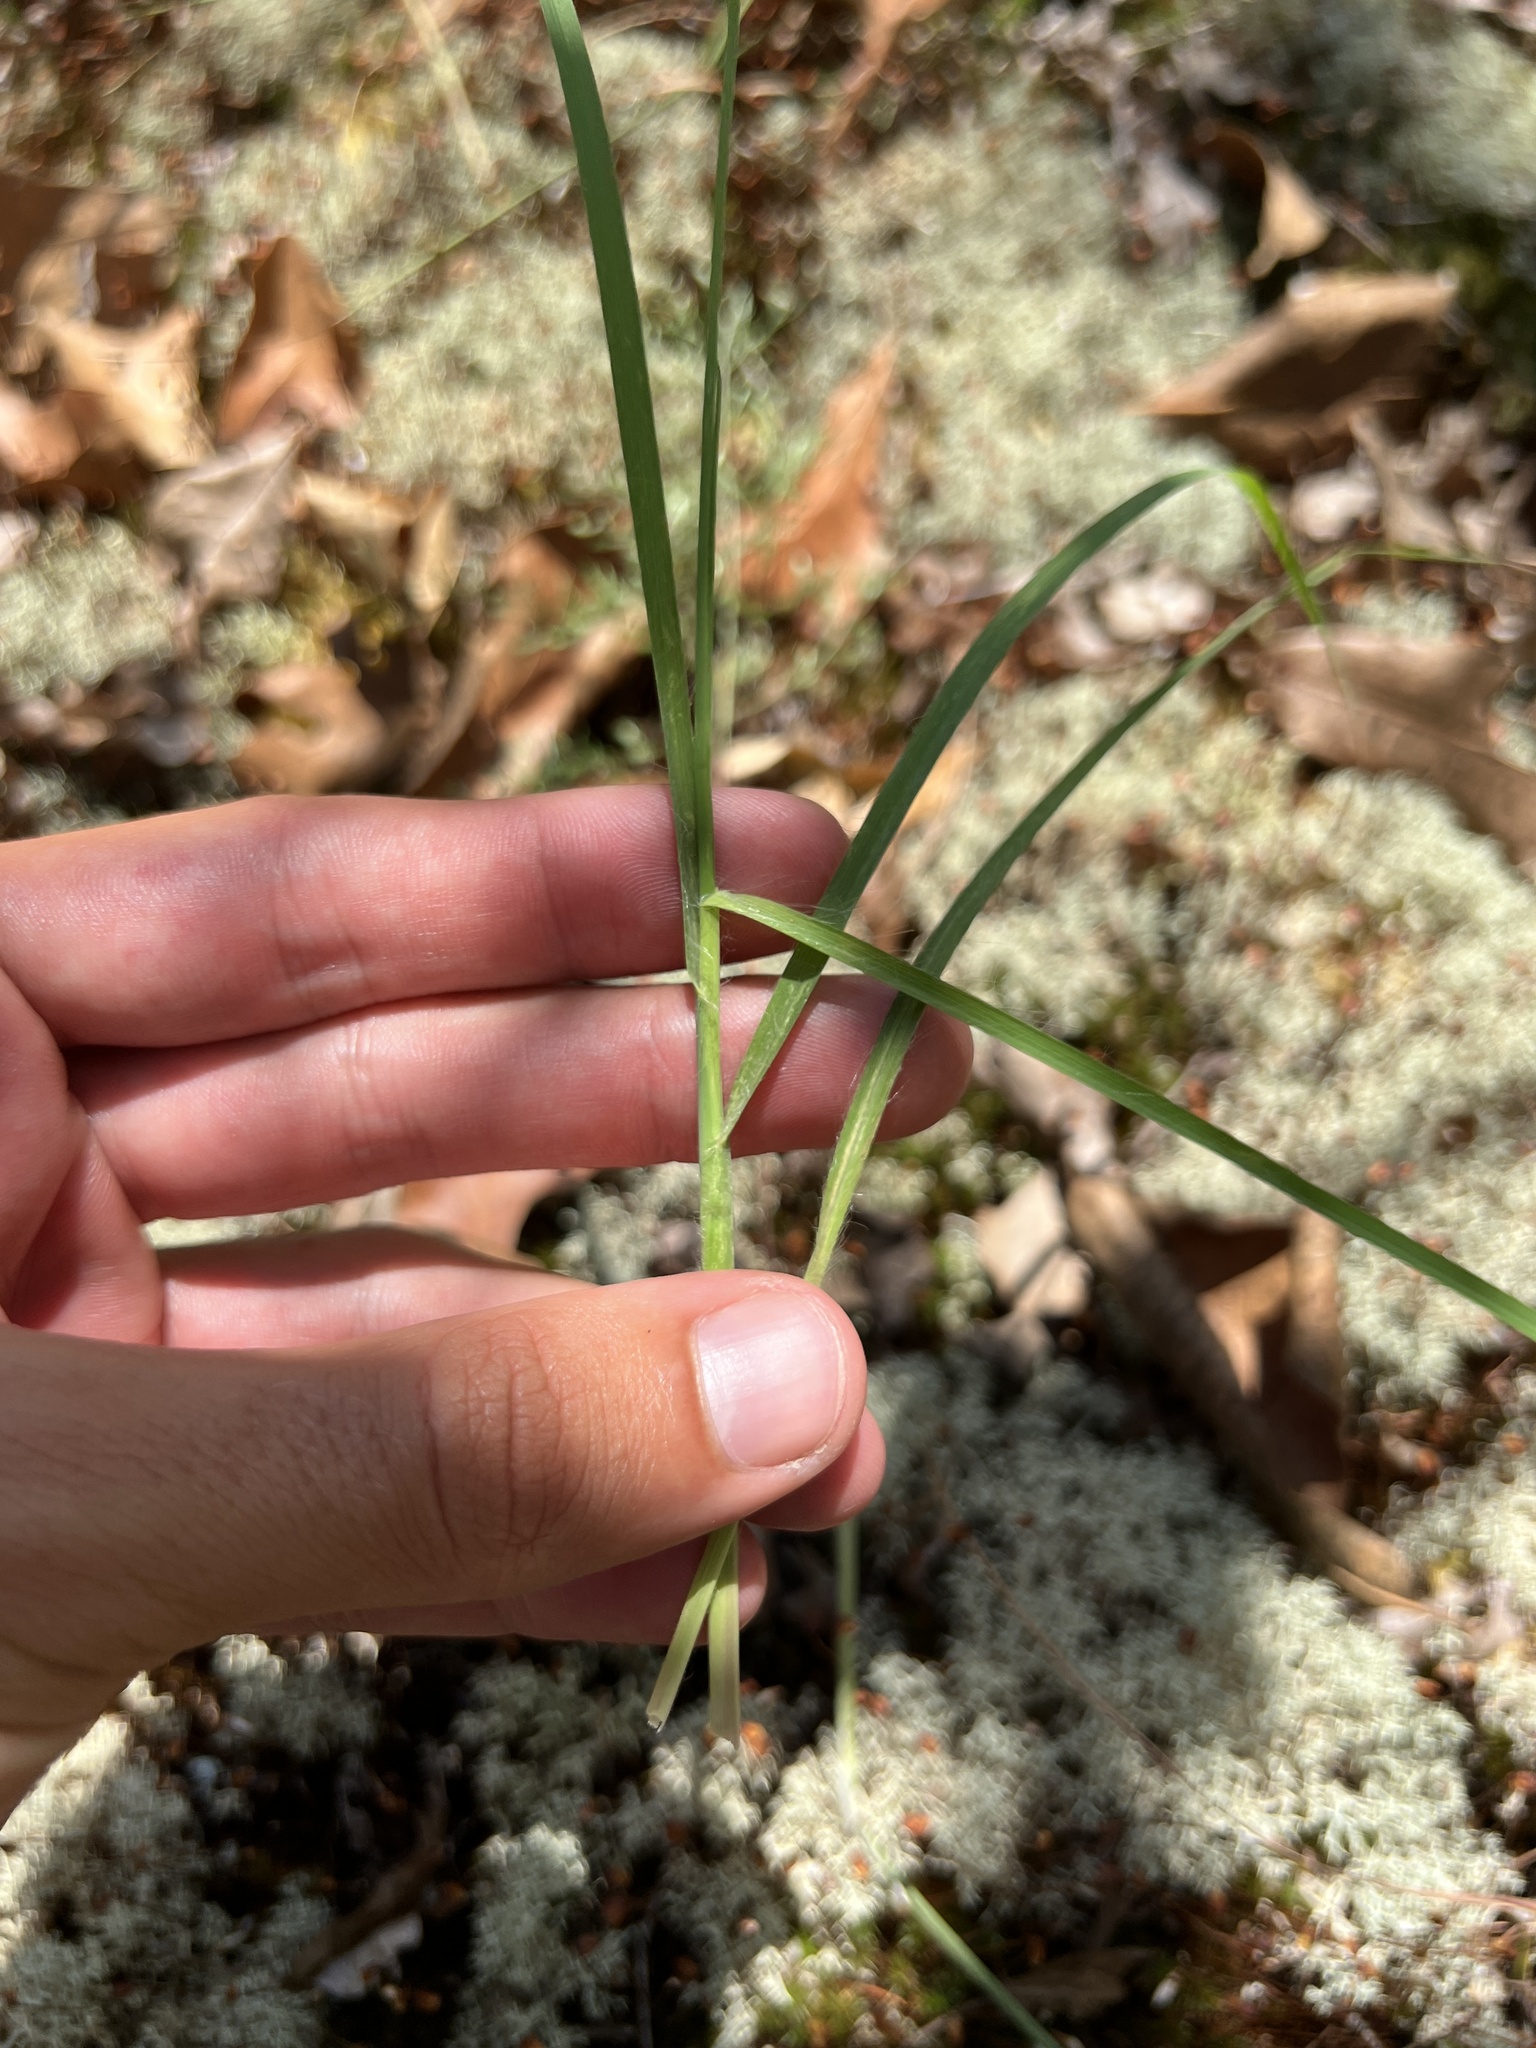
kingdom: Plantae
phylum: Tracheophyta
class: Liliopsida
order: Poales
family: Poaceae
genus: Andropogon
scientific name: Andropogon gyrans
